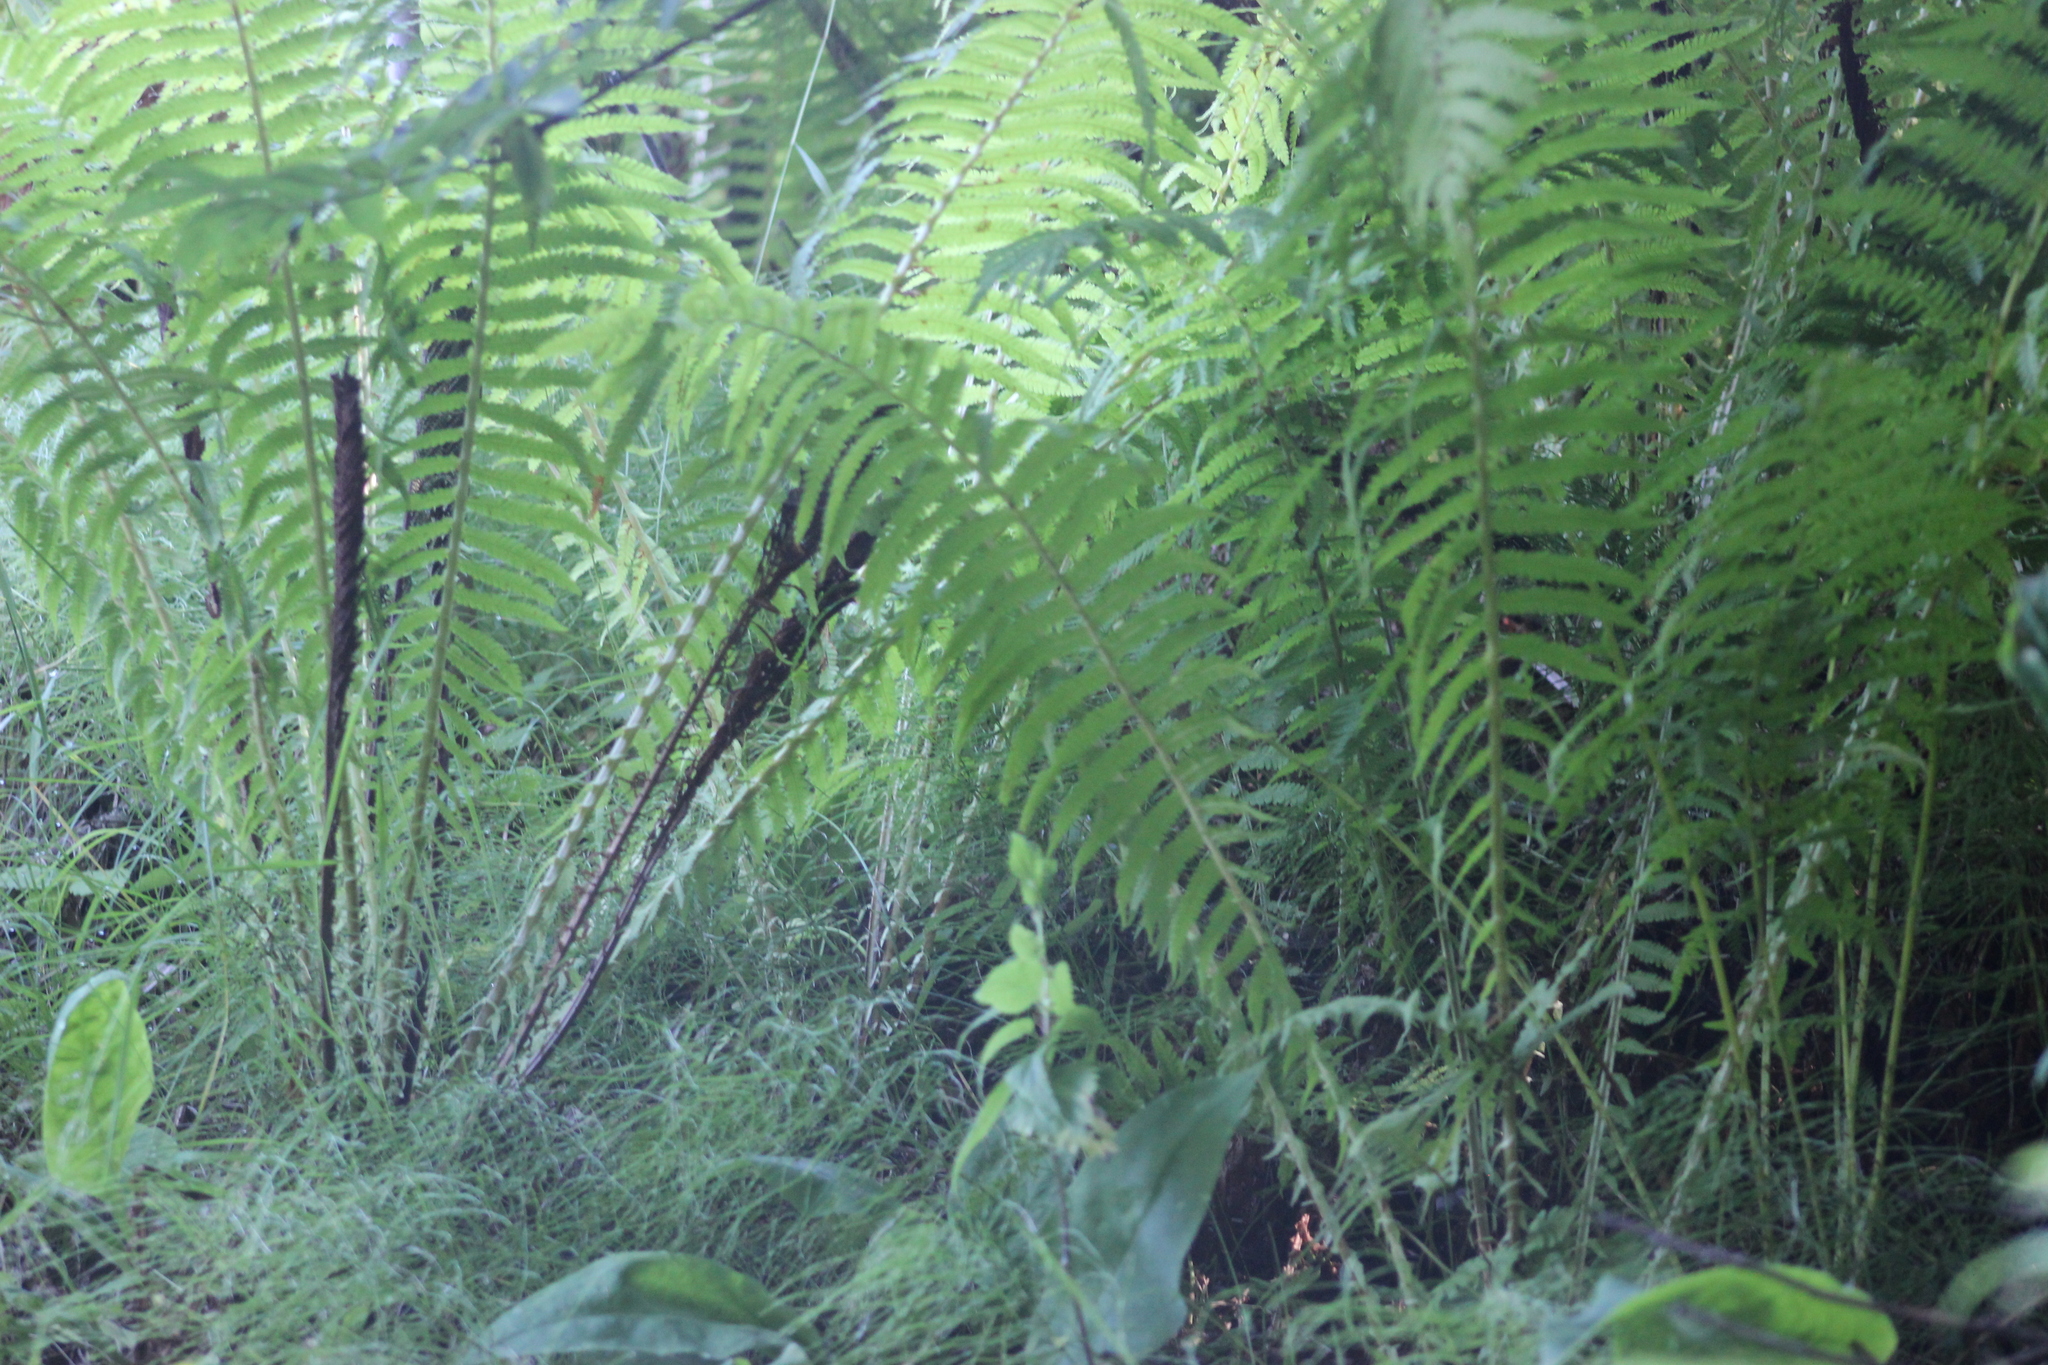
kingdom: Plantae
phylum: Tracheophyta
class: Polypodiopsida
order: Polypodiales
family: Onocleaceae
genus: Matteuccia
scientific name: Matteuccia struthiopteris
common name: Ostrich fern
